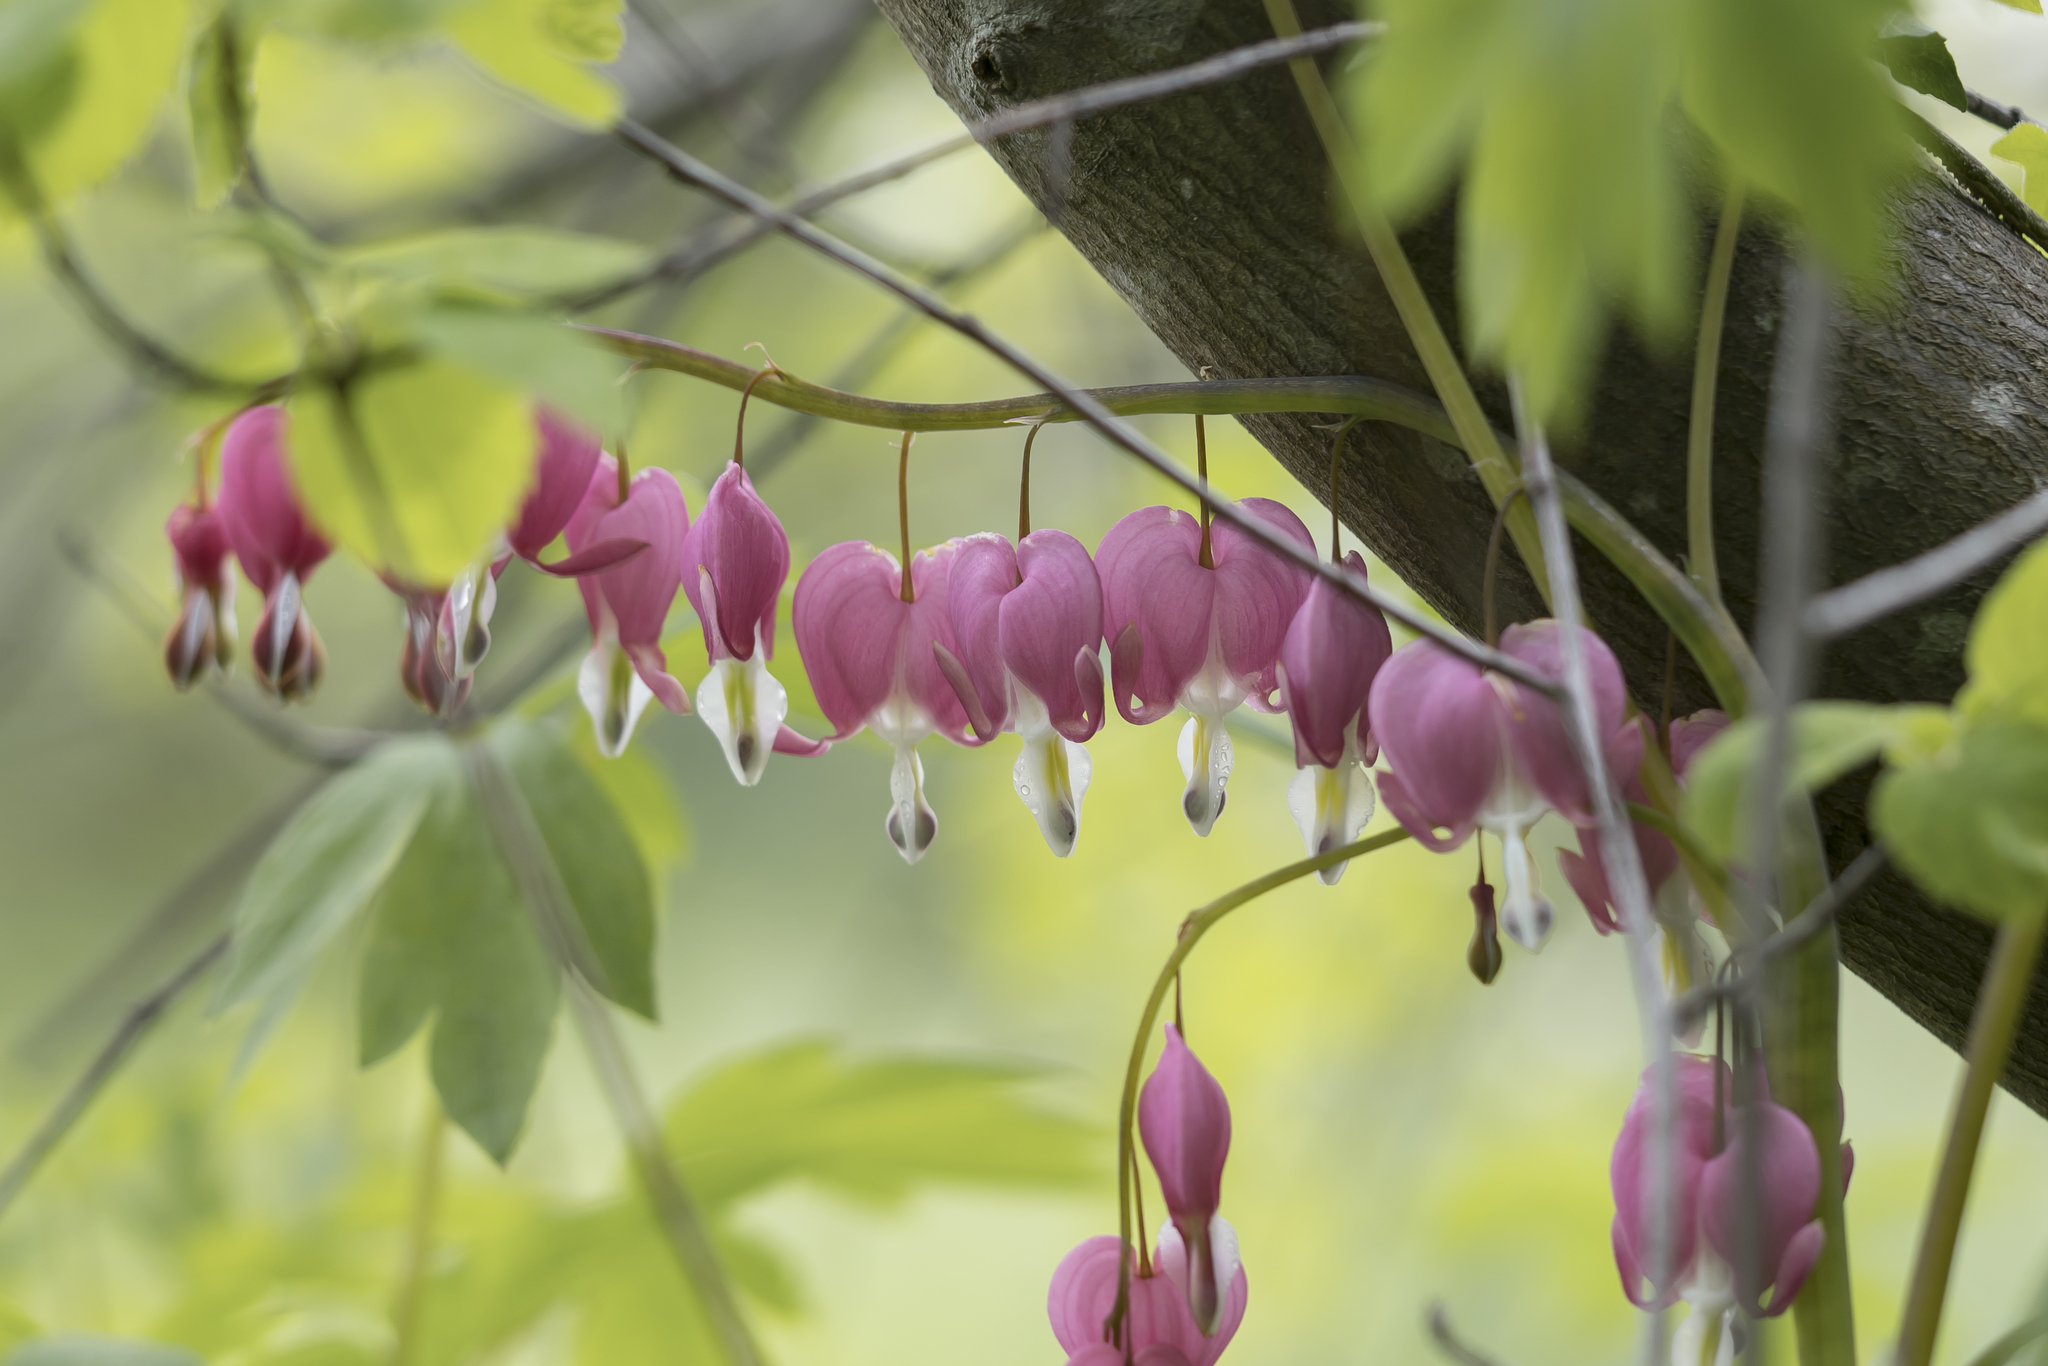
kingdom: Plantae
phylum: Tracheophyta
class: Magnoliopsida
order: Ranunculales
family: Papaveraceae
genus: Lamprocapnos
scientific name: Lamprocapnos spectabilis
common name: Asian bleeding-heart
